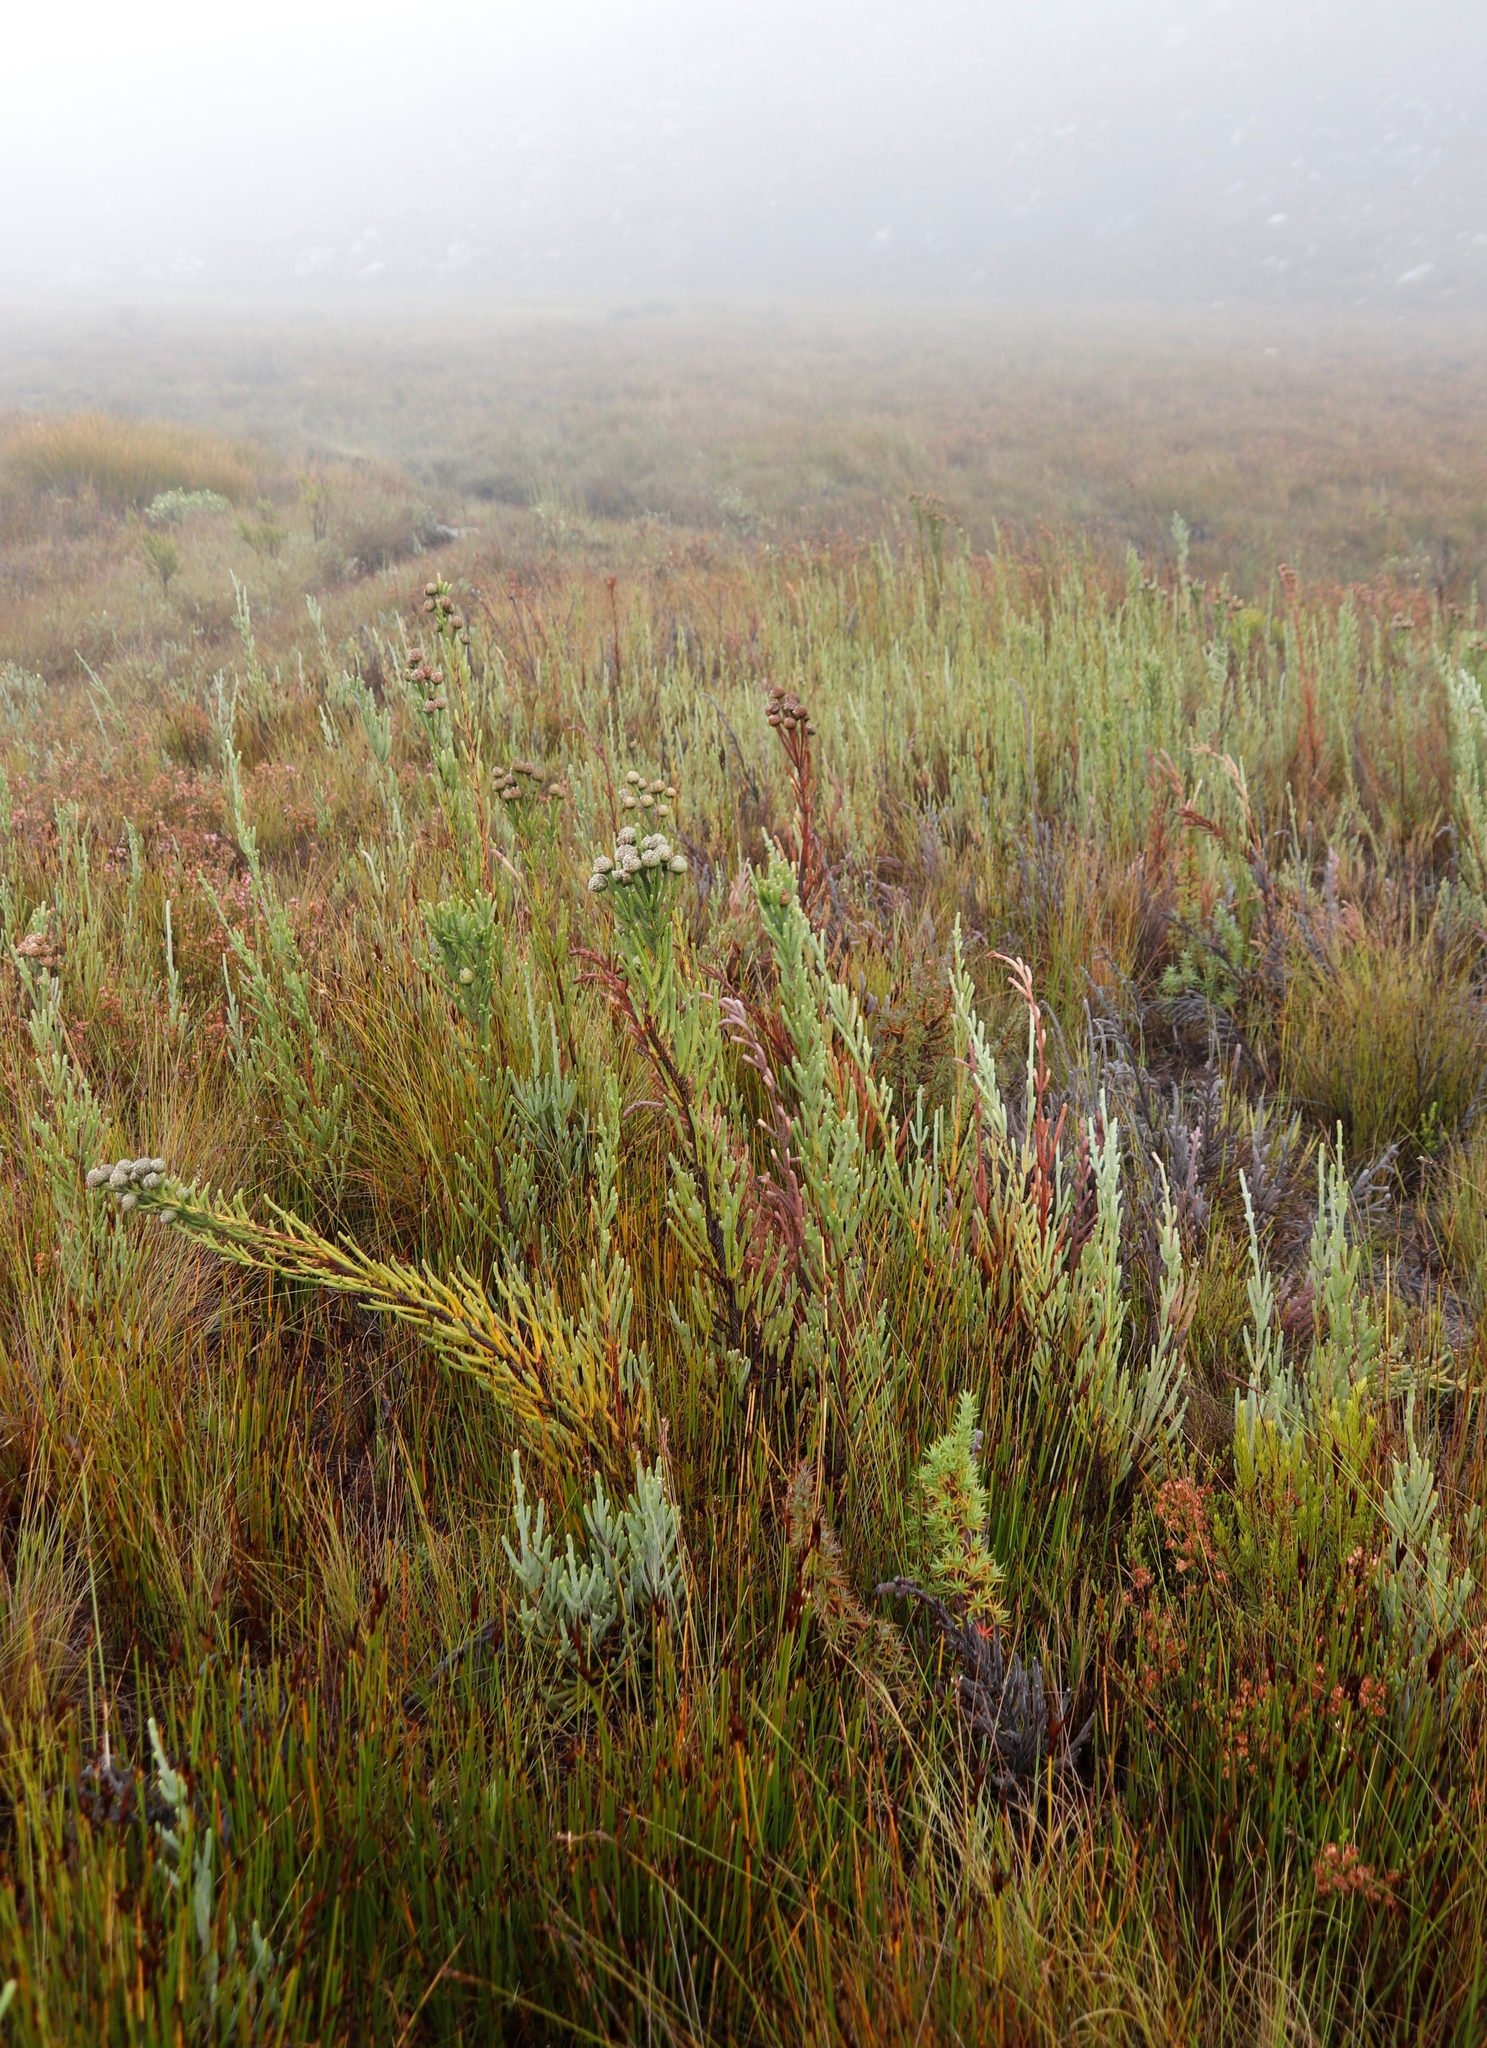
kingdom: Plantae
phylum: Tracheophyta
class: Magnoliopsida
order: Bruniales
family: Bruniaceae
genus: Brunia
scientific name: Brunia sphaerocephala
